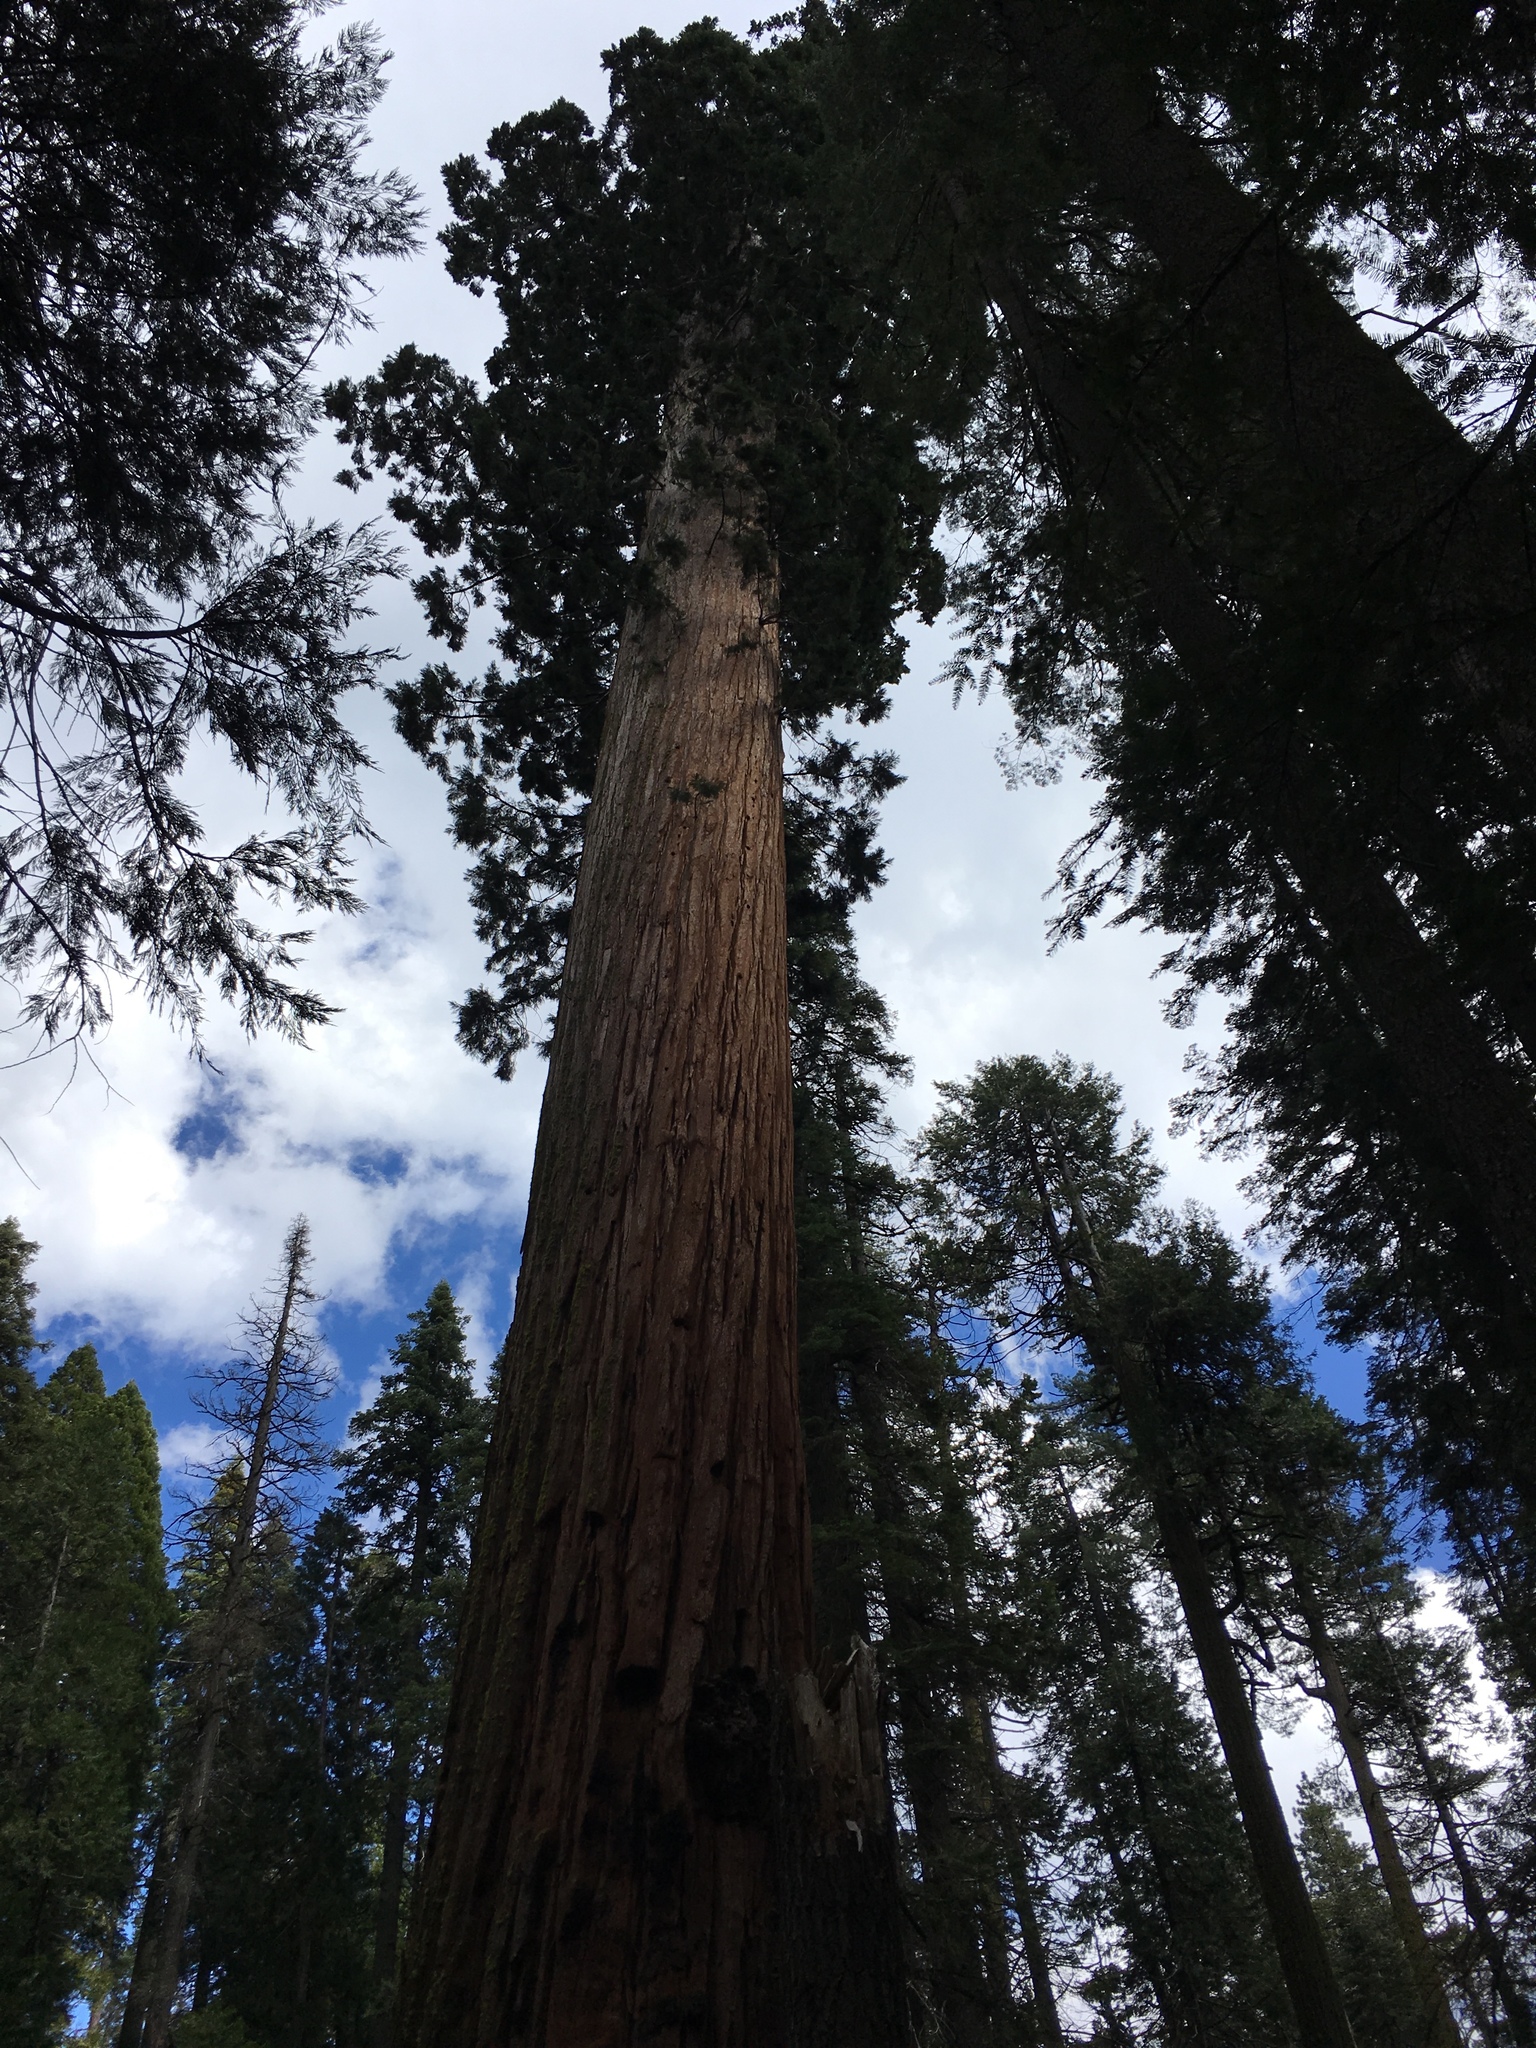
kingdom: Plantae
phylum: Tracheophyta
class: Pinopsida
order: Pinales
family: Cupressaceae
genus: Sequoiadendron
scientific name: Sequoiadendron giganteum
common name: Wellingtonia
